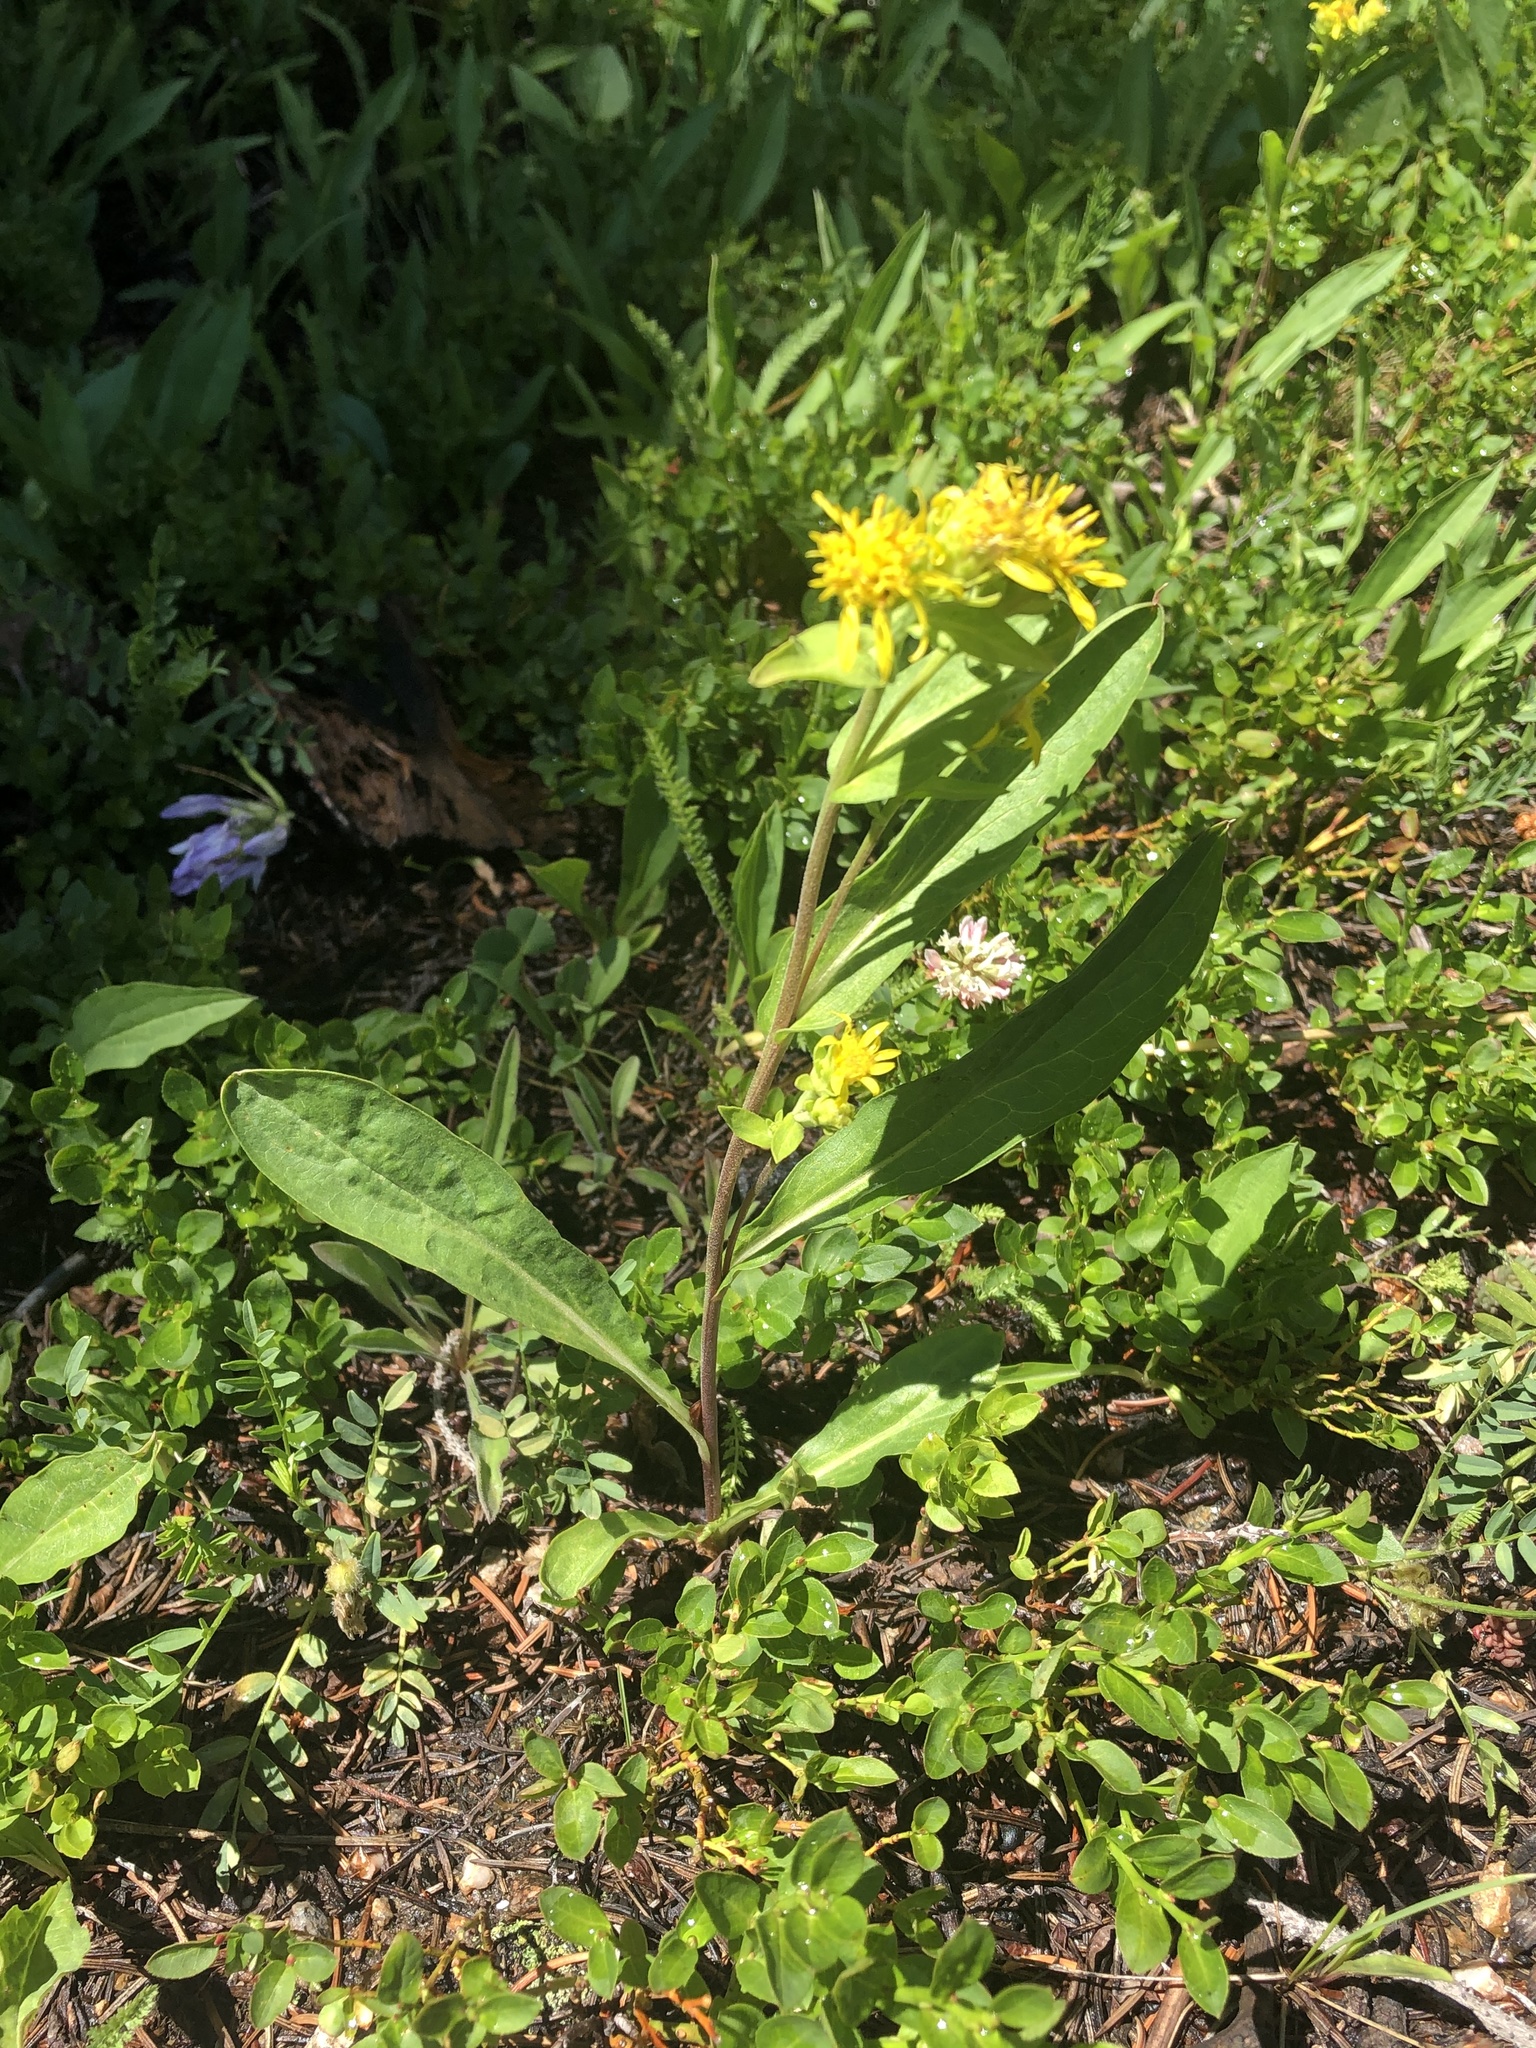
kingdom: Plantae
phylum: Tracheophyta
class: Magnoliopsida
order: Asterales
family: Asteraceae
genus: Solidago
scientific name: Solidago multiradiata
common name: Northern goldenrod
